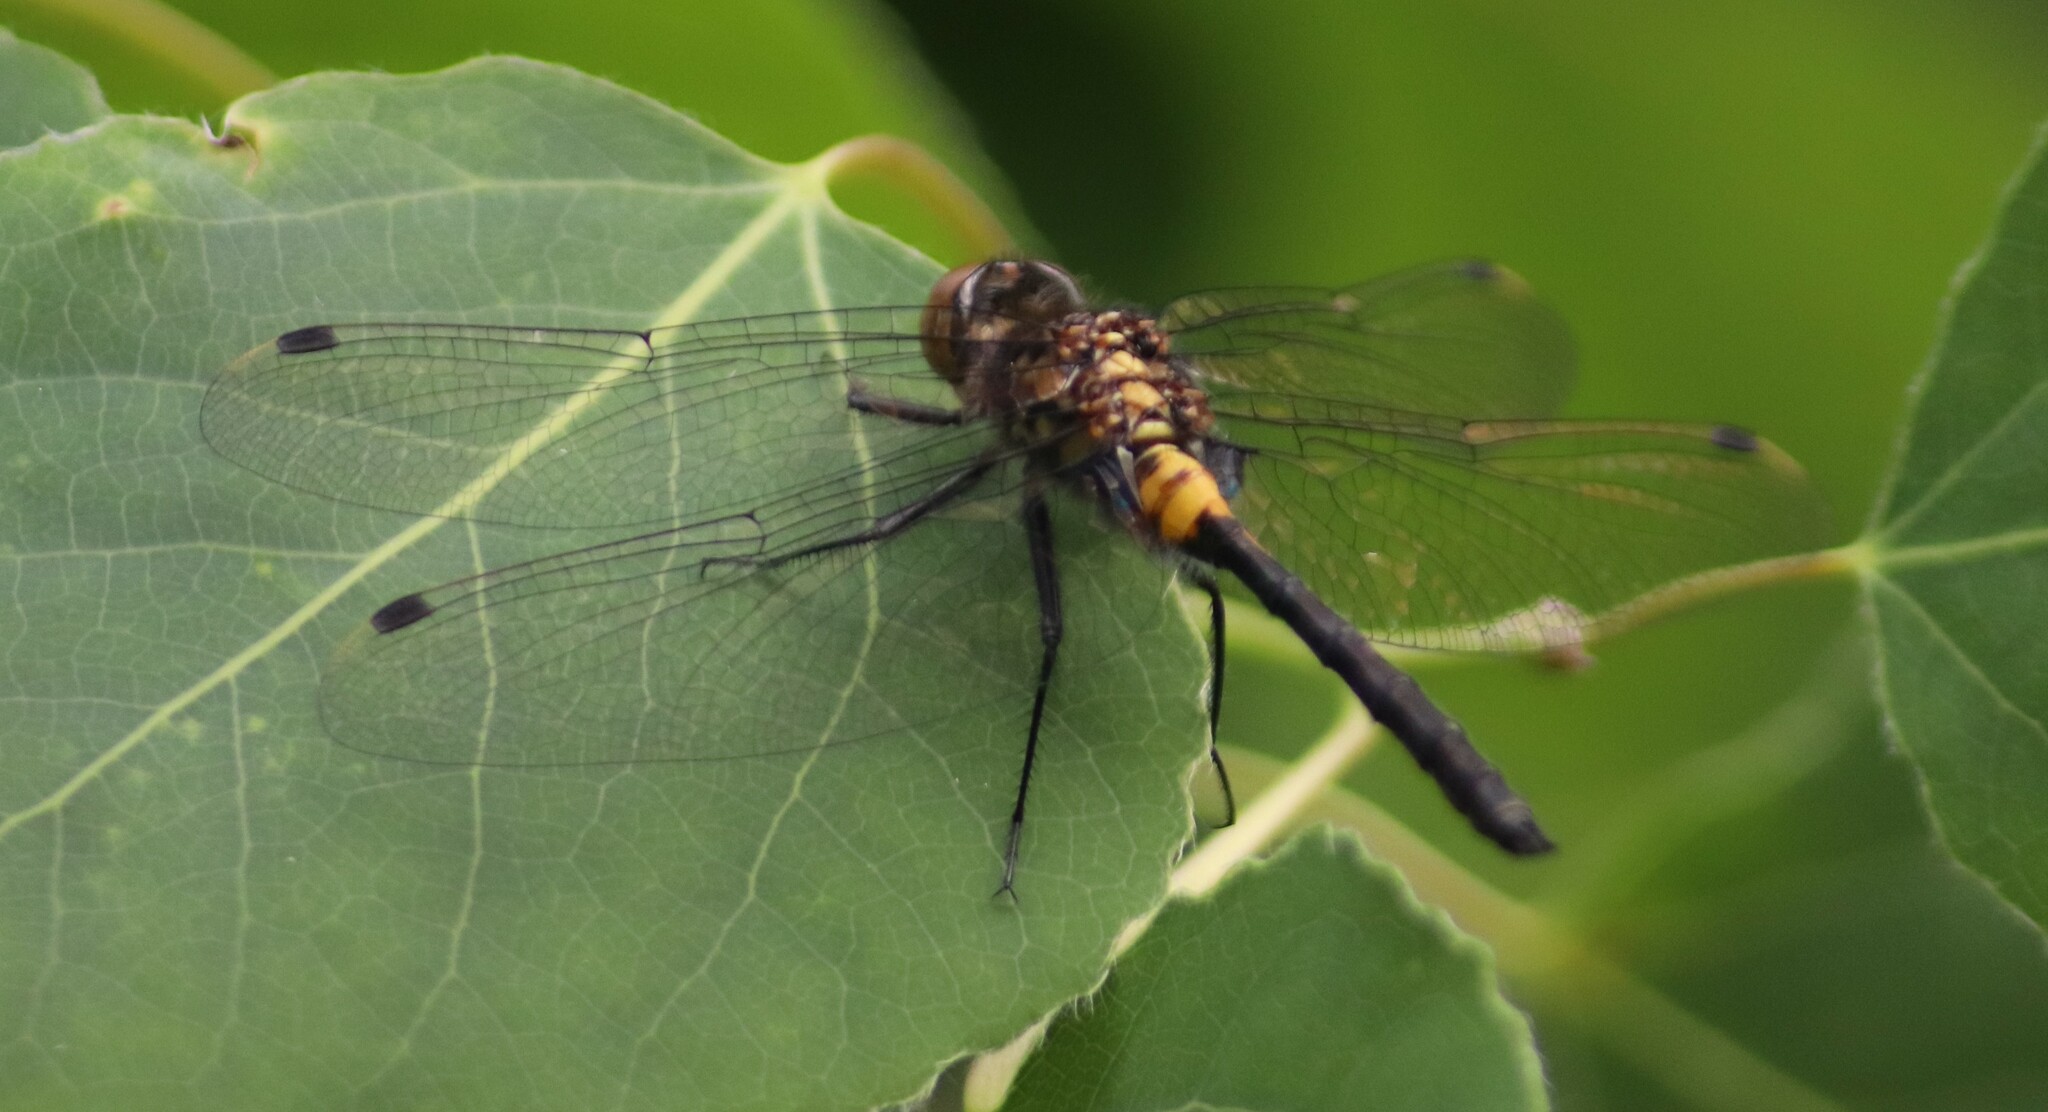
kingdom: Animalia
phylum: Arthropoda
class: Insecta
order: Odonata
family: Libellulidae
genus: Leucorrhinia
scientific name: Leucorrhinia proxima
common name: Belted whiteface
